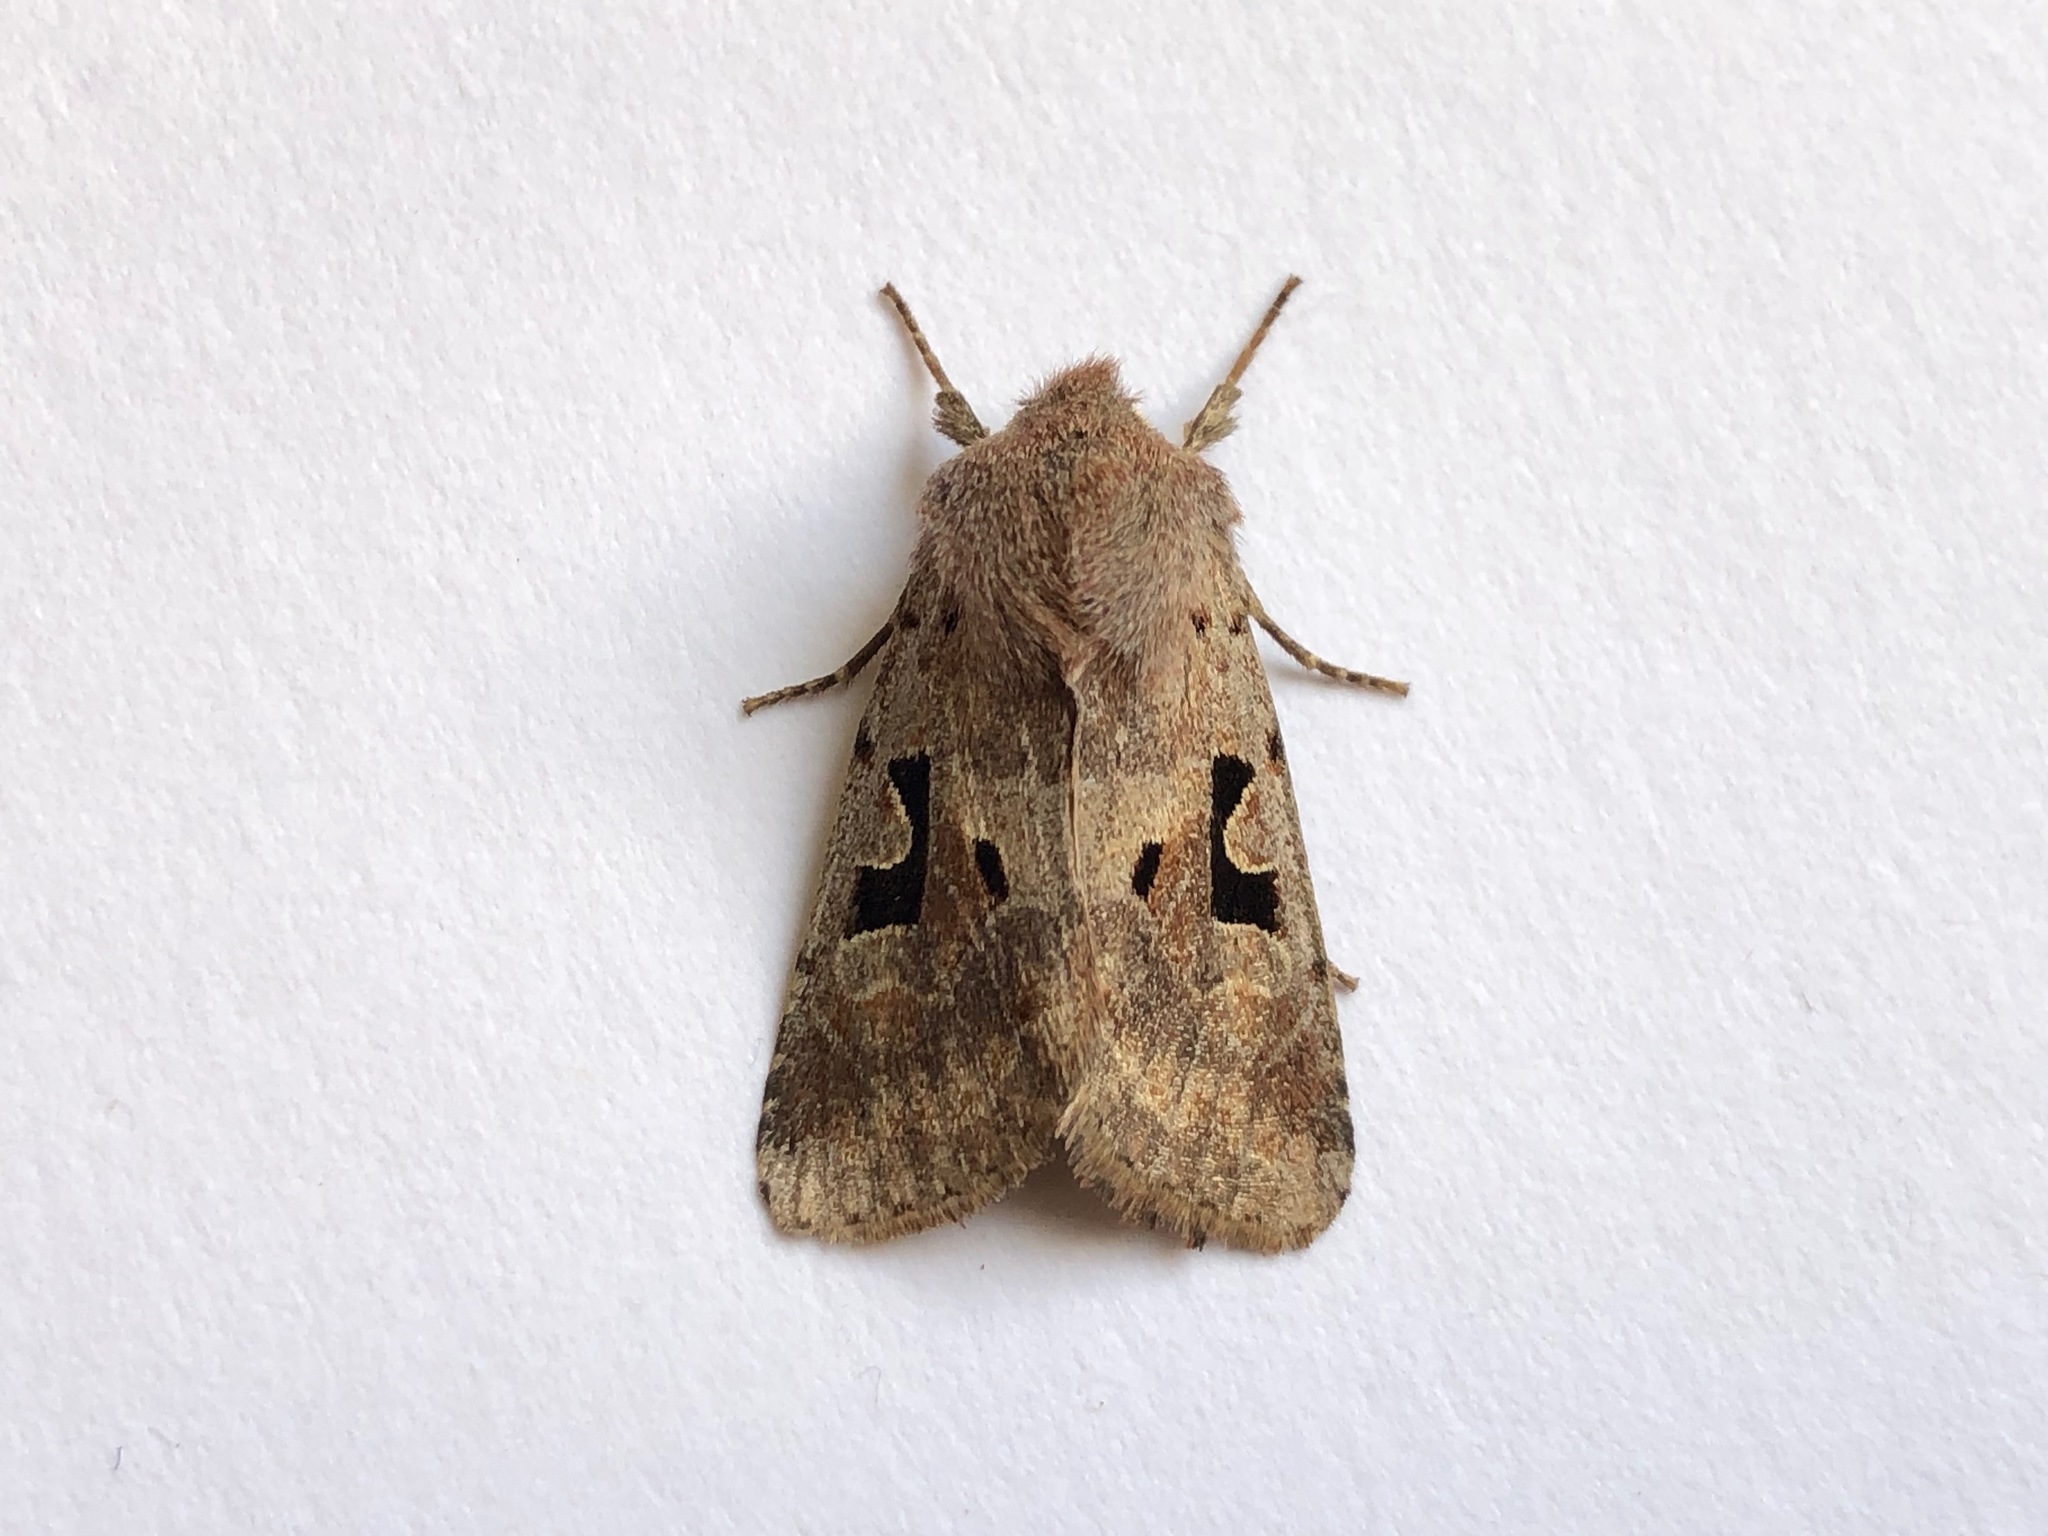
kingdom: Animalia
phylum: Arthropoda
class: Insecta
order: Lepidoptera
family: Noctuidae
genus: Orthosia
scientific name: Orthosia gothica
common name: Hebrew character
